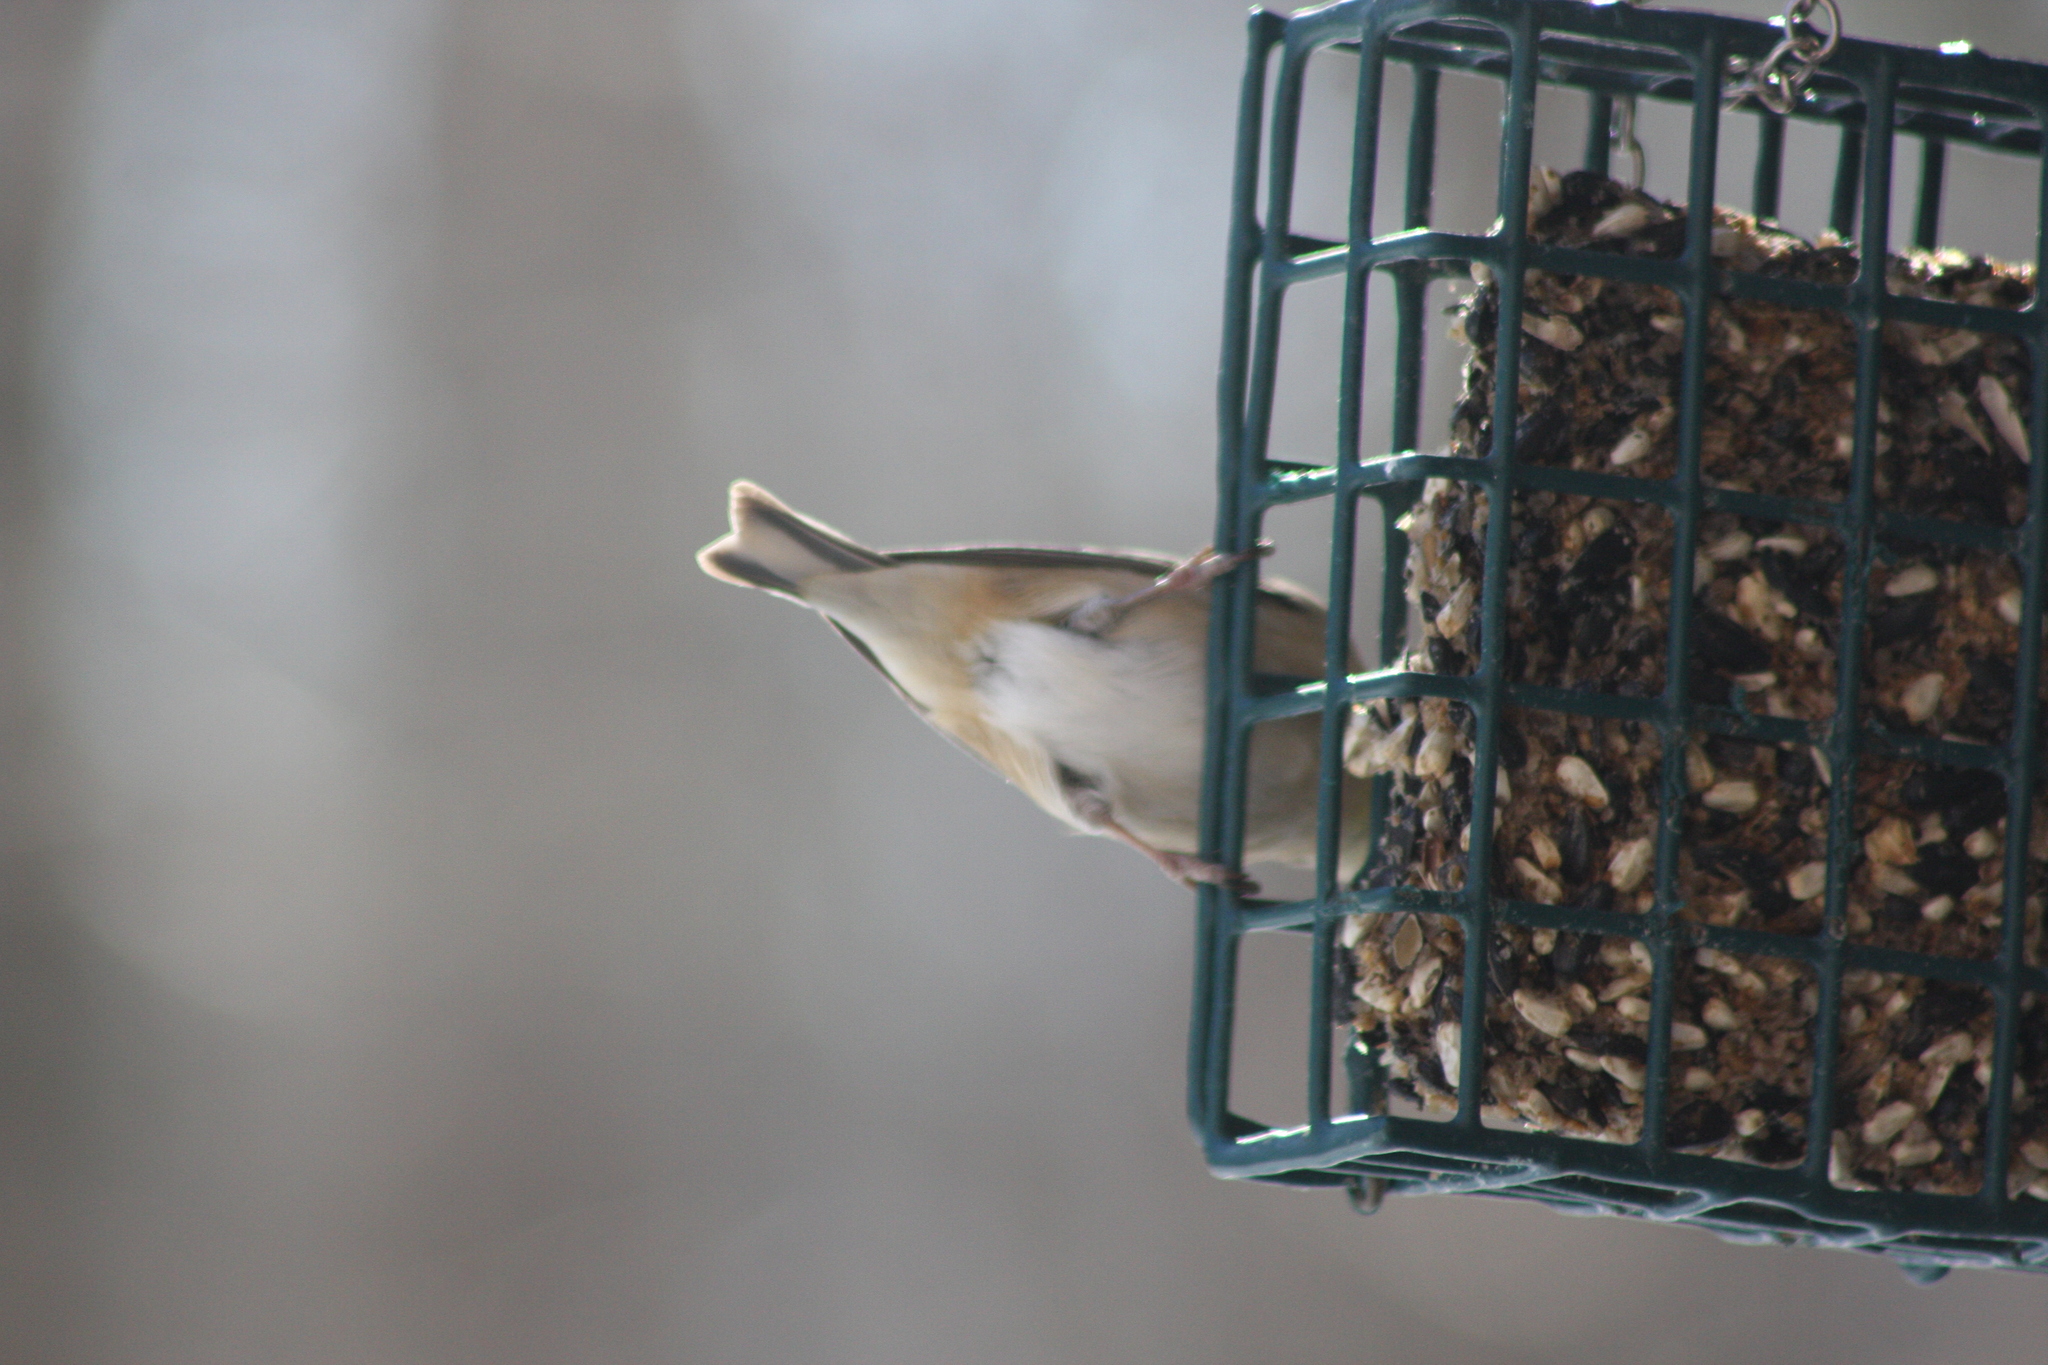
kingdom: Animalia
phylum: Chordata
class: Aves
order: Passeriformes
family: Fringillidae
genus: Spinus
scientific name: Spinus tristis
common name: American goldfinch
